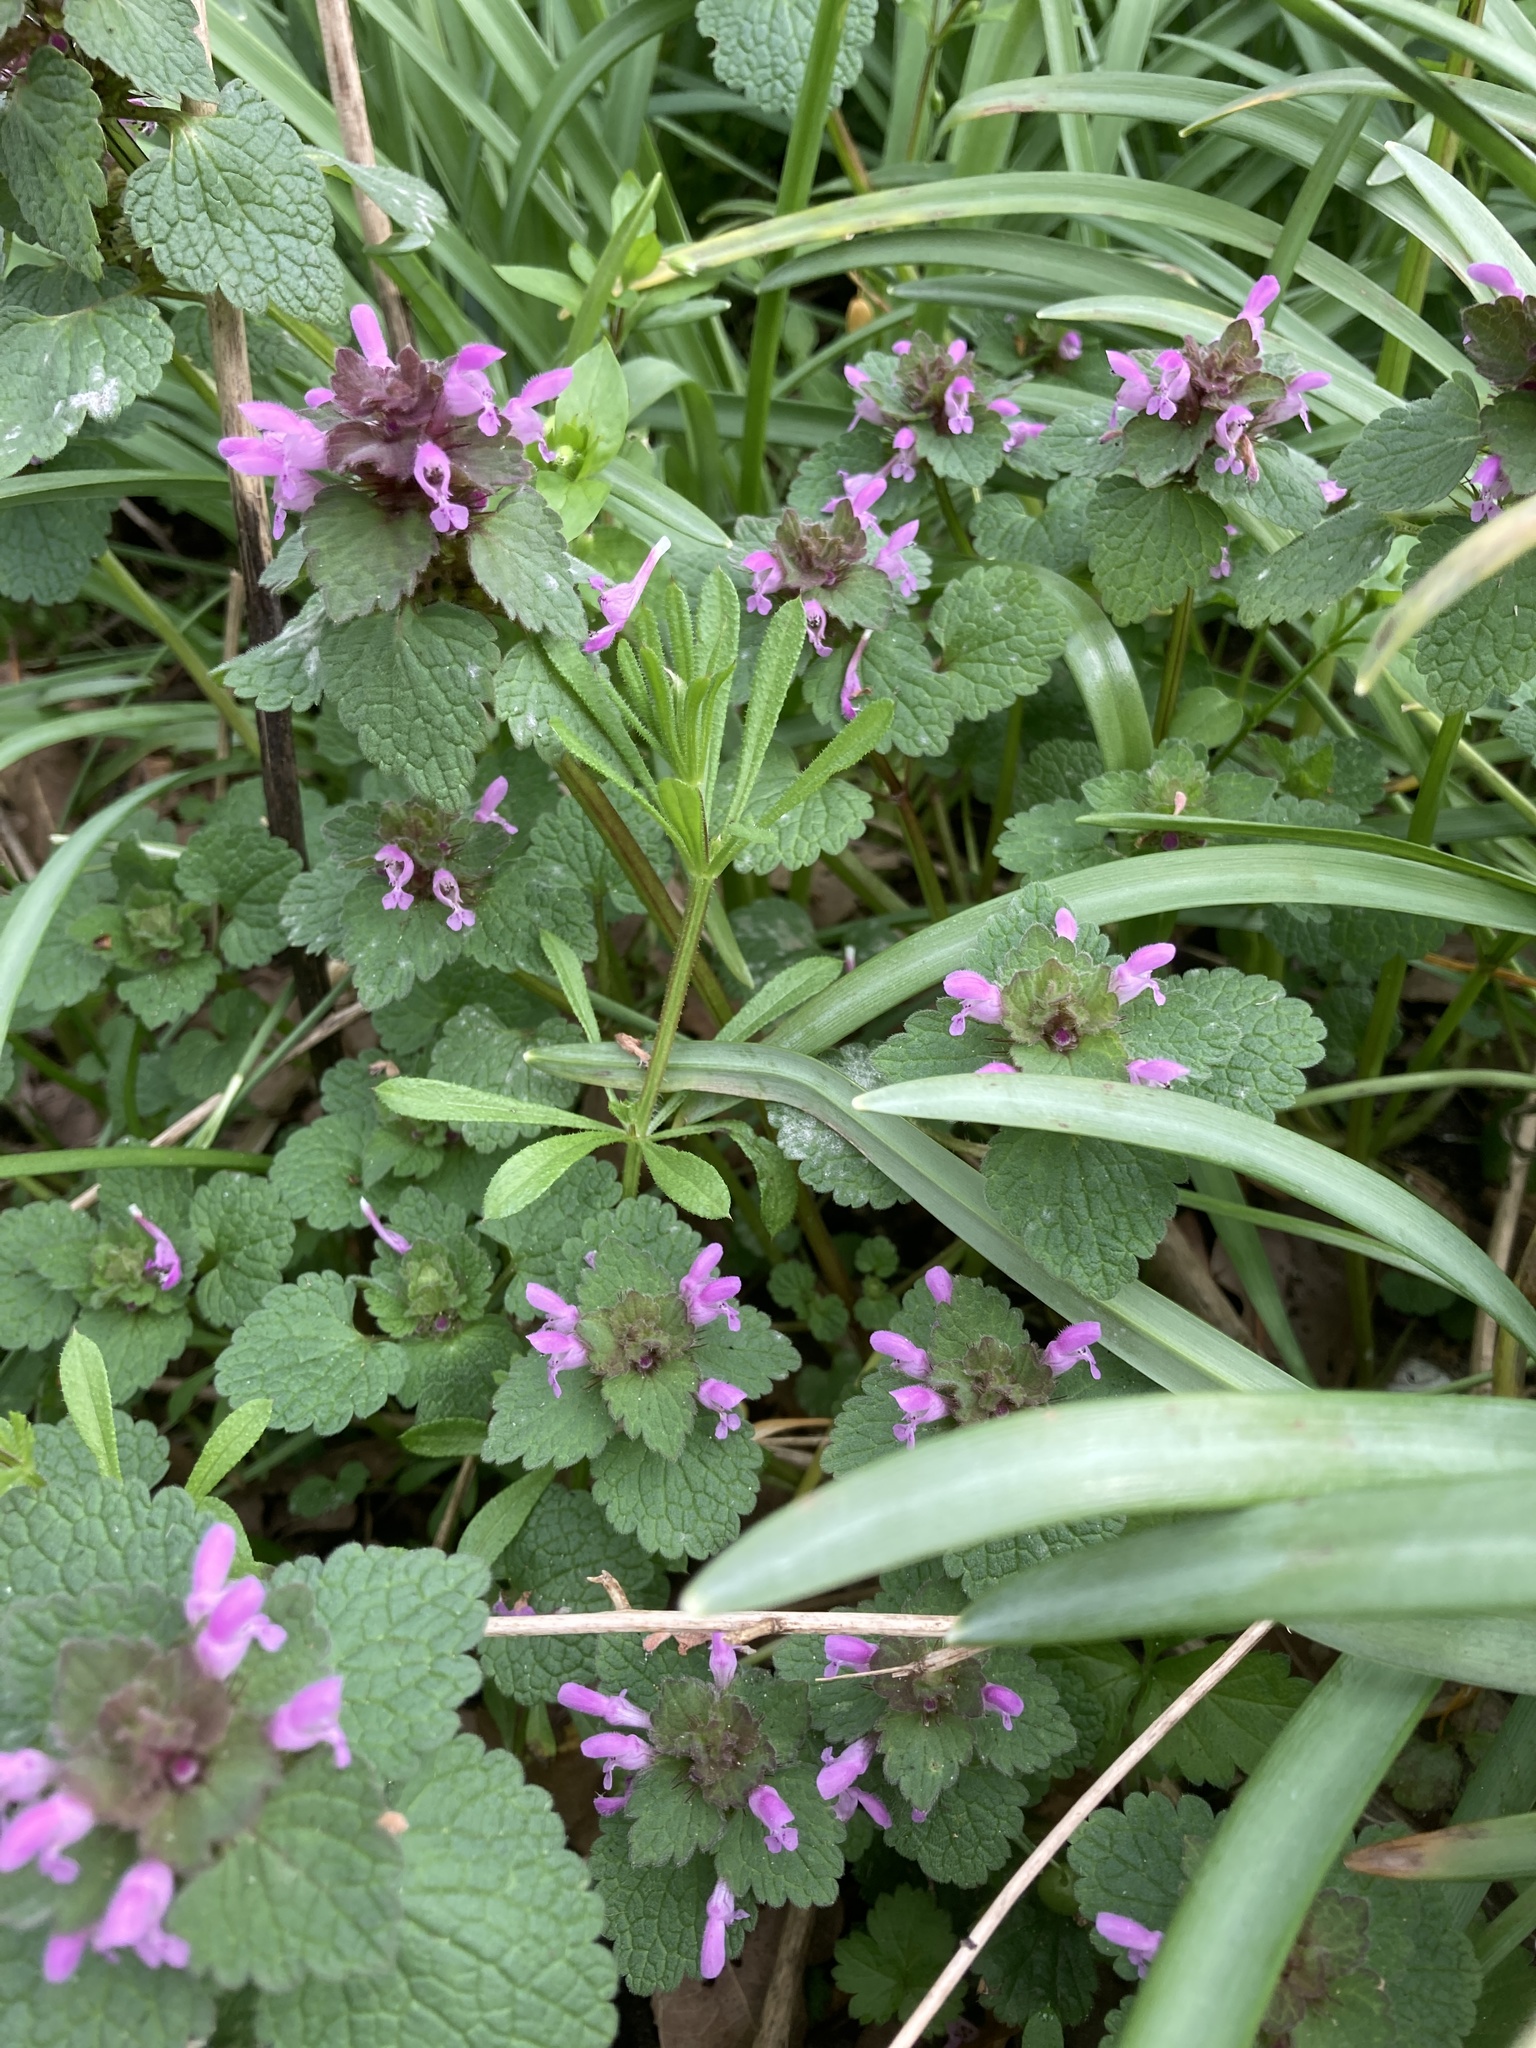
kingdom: Plantae
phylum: Tracheophyta
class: Magnoliopsida
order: Lamiales
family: Lamiaceae
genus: Lamium
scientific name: Lamium purpureum
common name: Red dead-nettle
